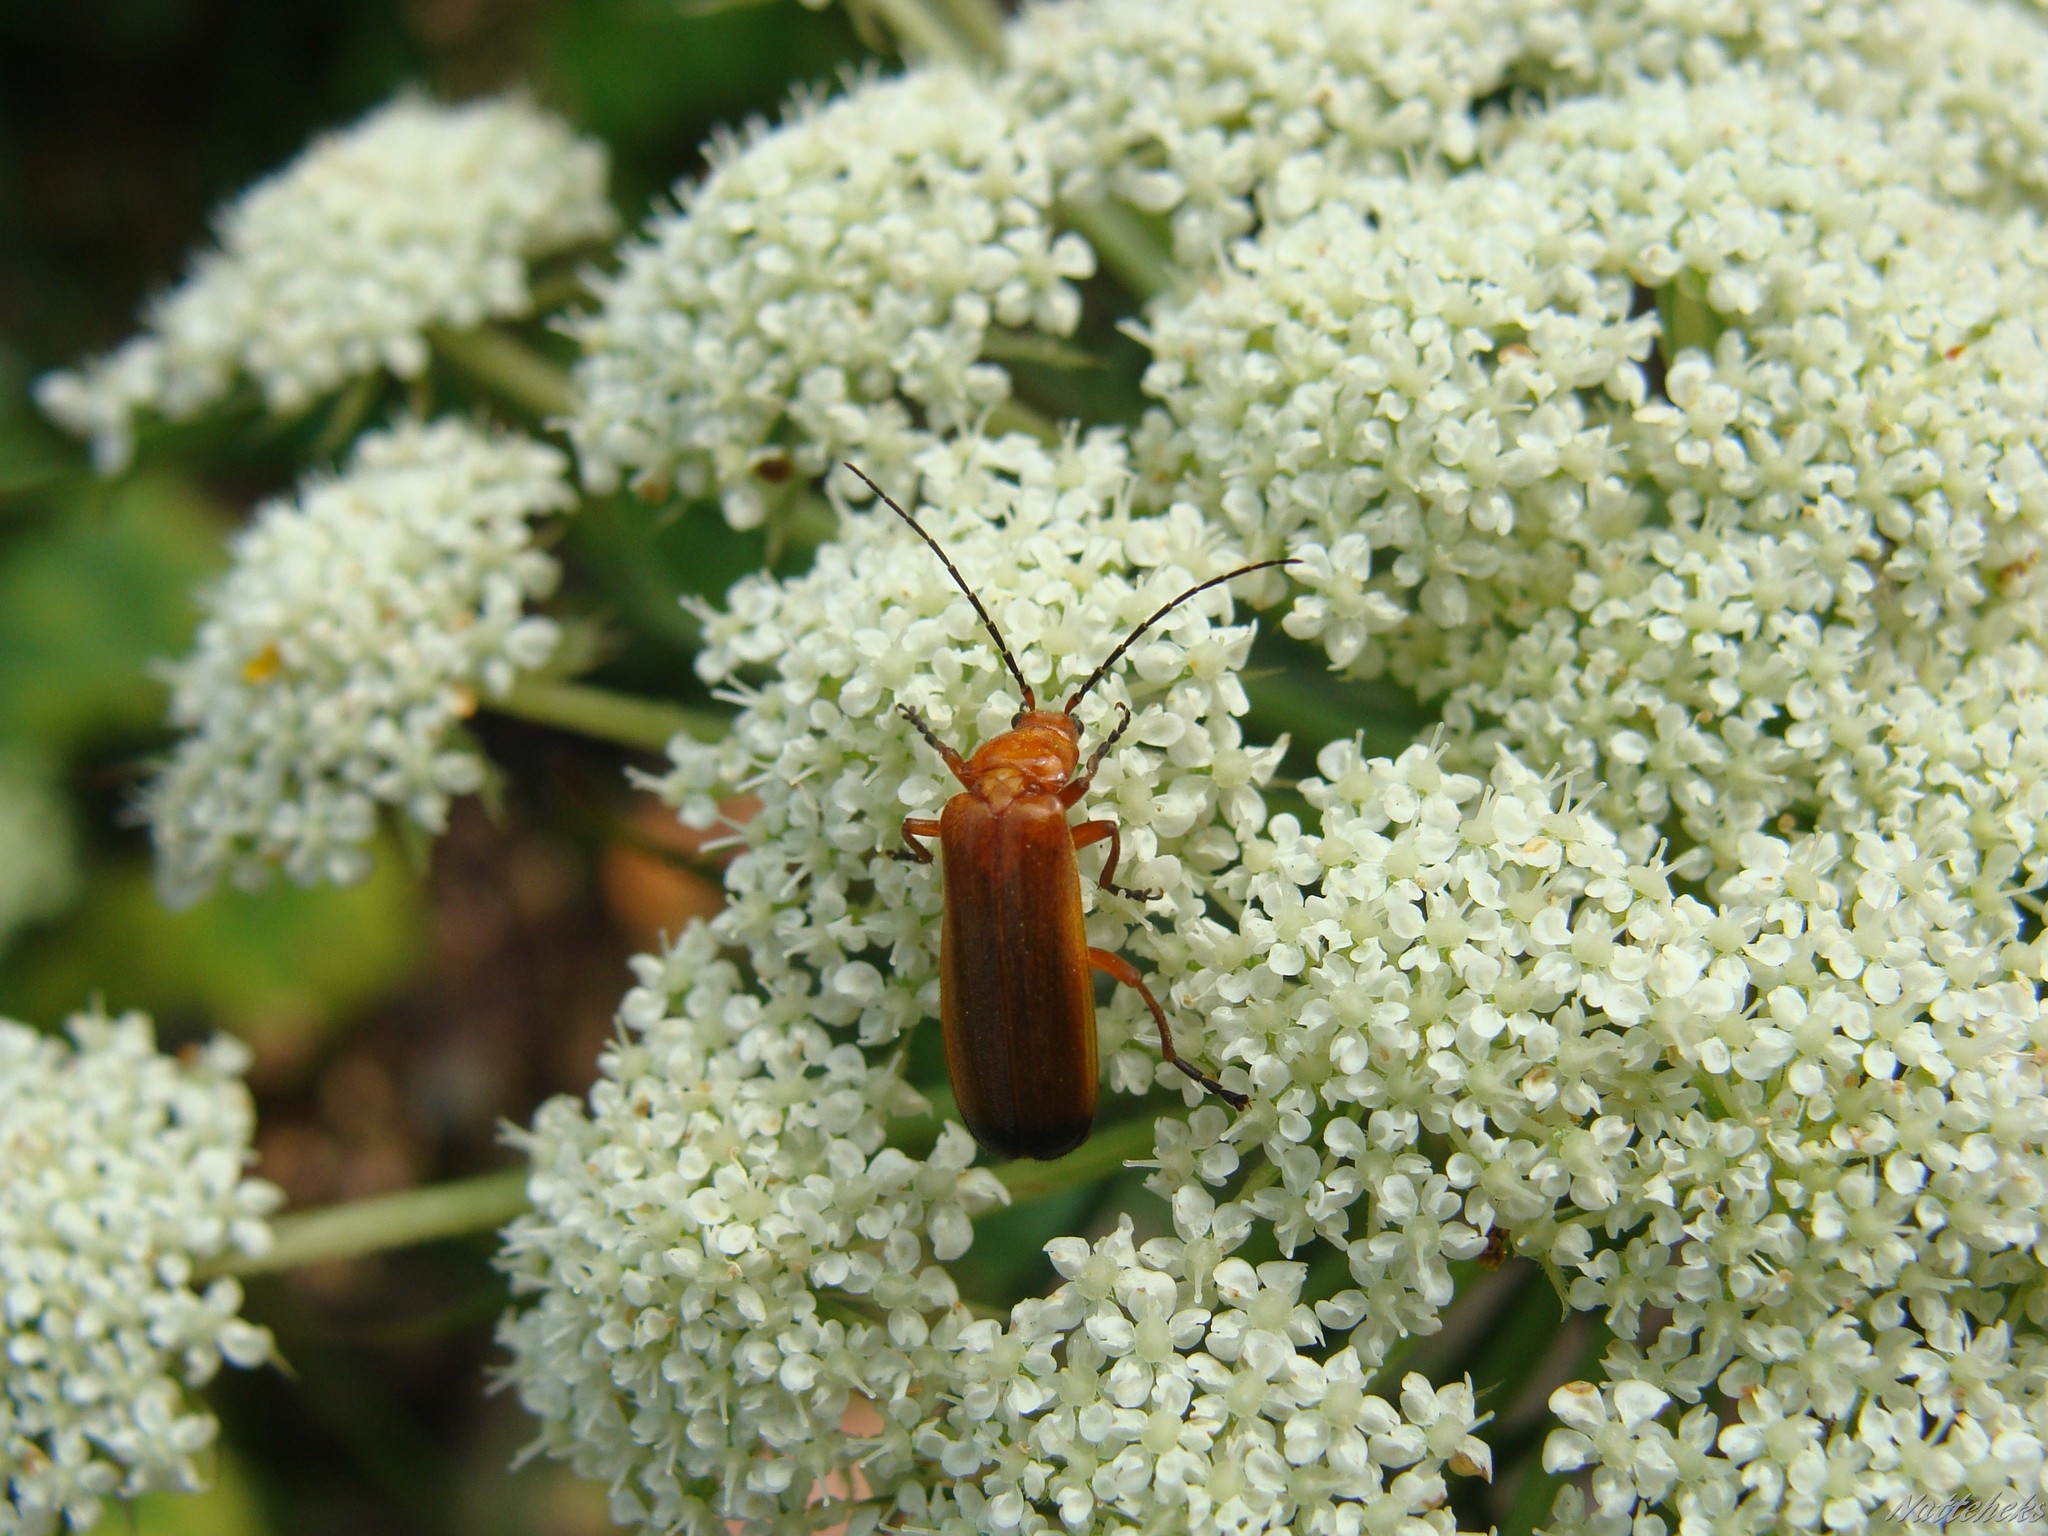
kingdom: Animalia
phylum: Arthropoda
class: Insecta
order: Coleoptera
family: Cantharidae
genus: Rhagonycha
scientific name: Rhagonycha fulva
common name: Common red soldier beetle
